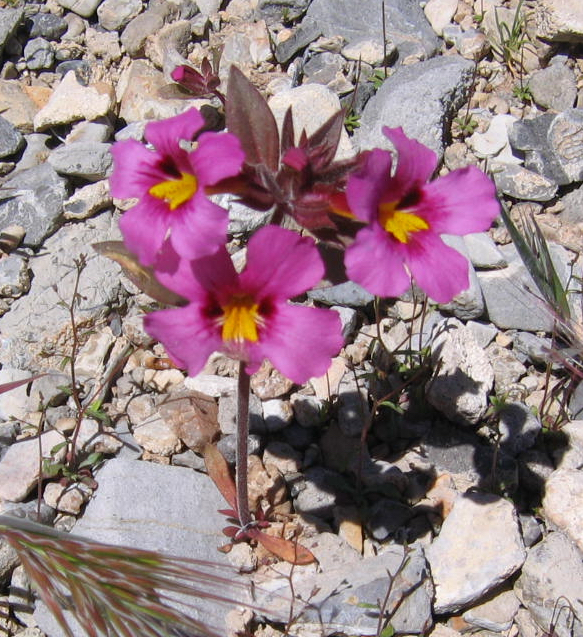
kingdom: Plantae
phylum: Tracheophyta
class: Magnoliopsida
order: Lamiales
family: Phrymaceae
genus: Diplacus
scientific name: Diplacus bigelovii
